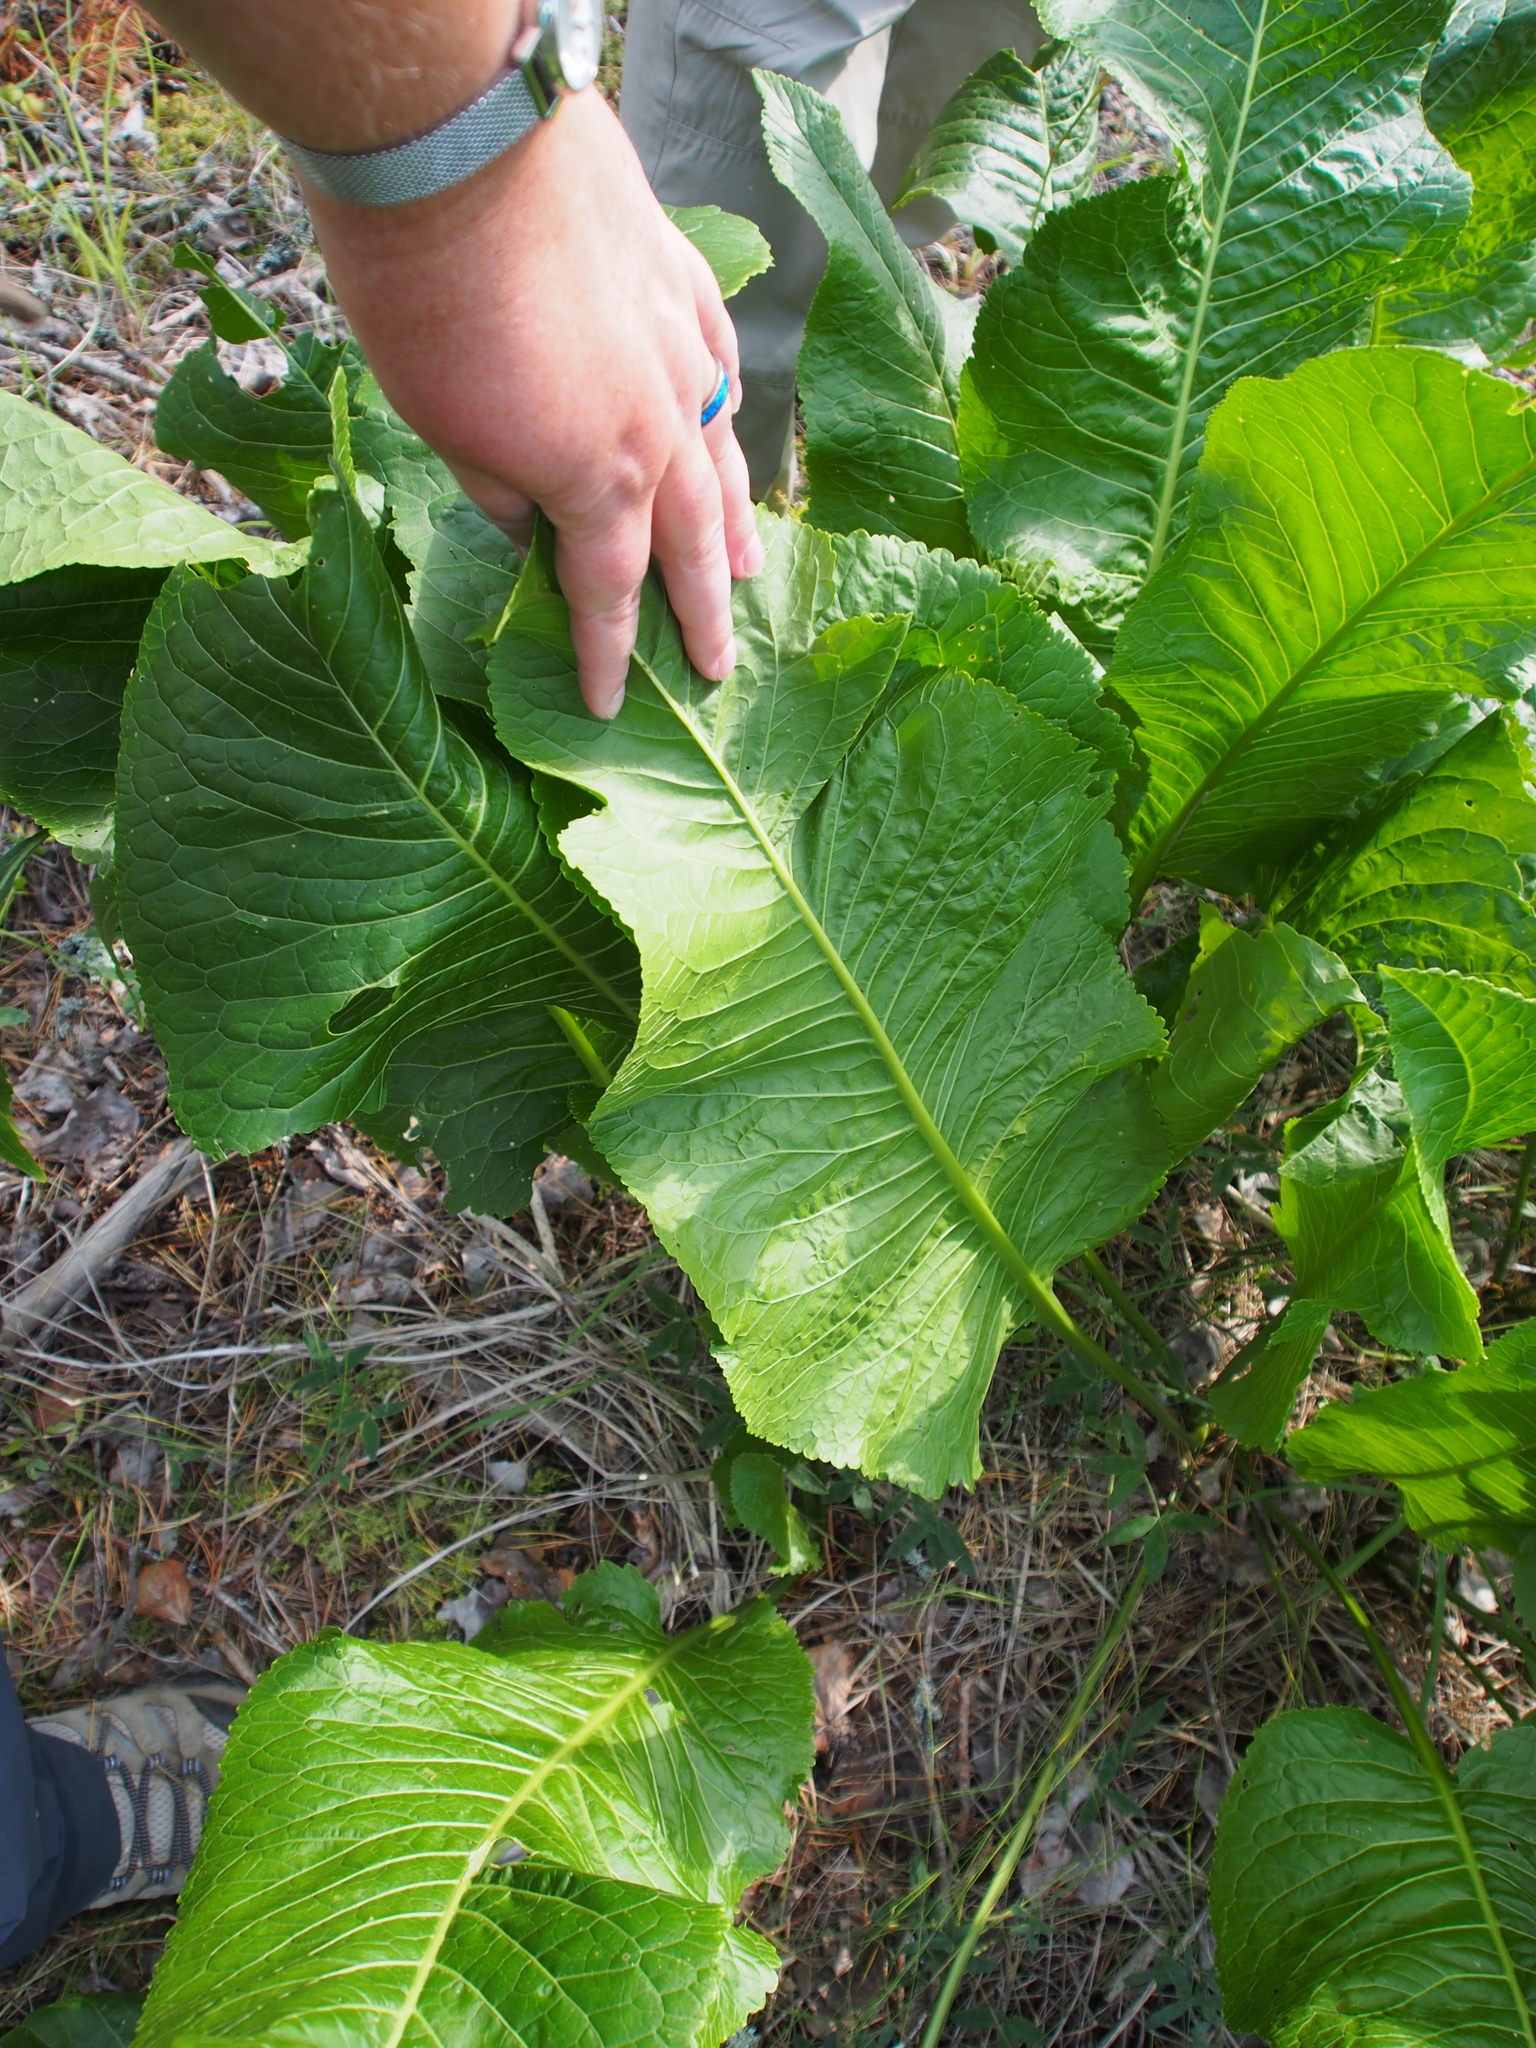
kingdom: Plantae
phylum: Tracheophyta
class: Magnoliopsida
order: Brassicales
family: Brassicaceae
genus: Armoracia
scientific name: Armoracia rusticana
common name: Horseradish
